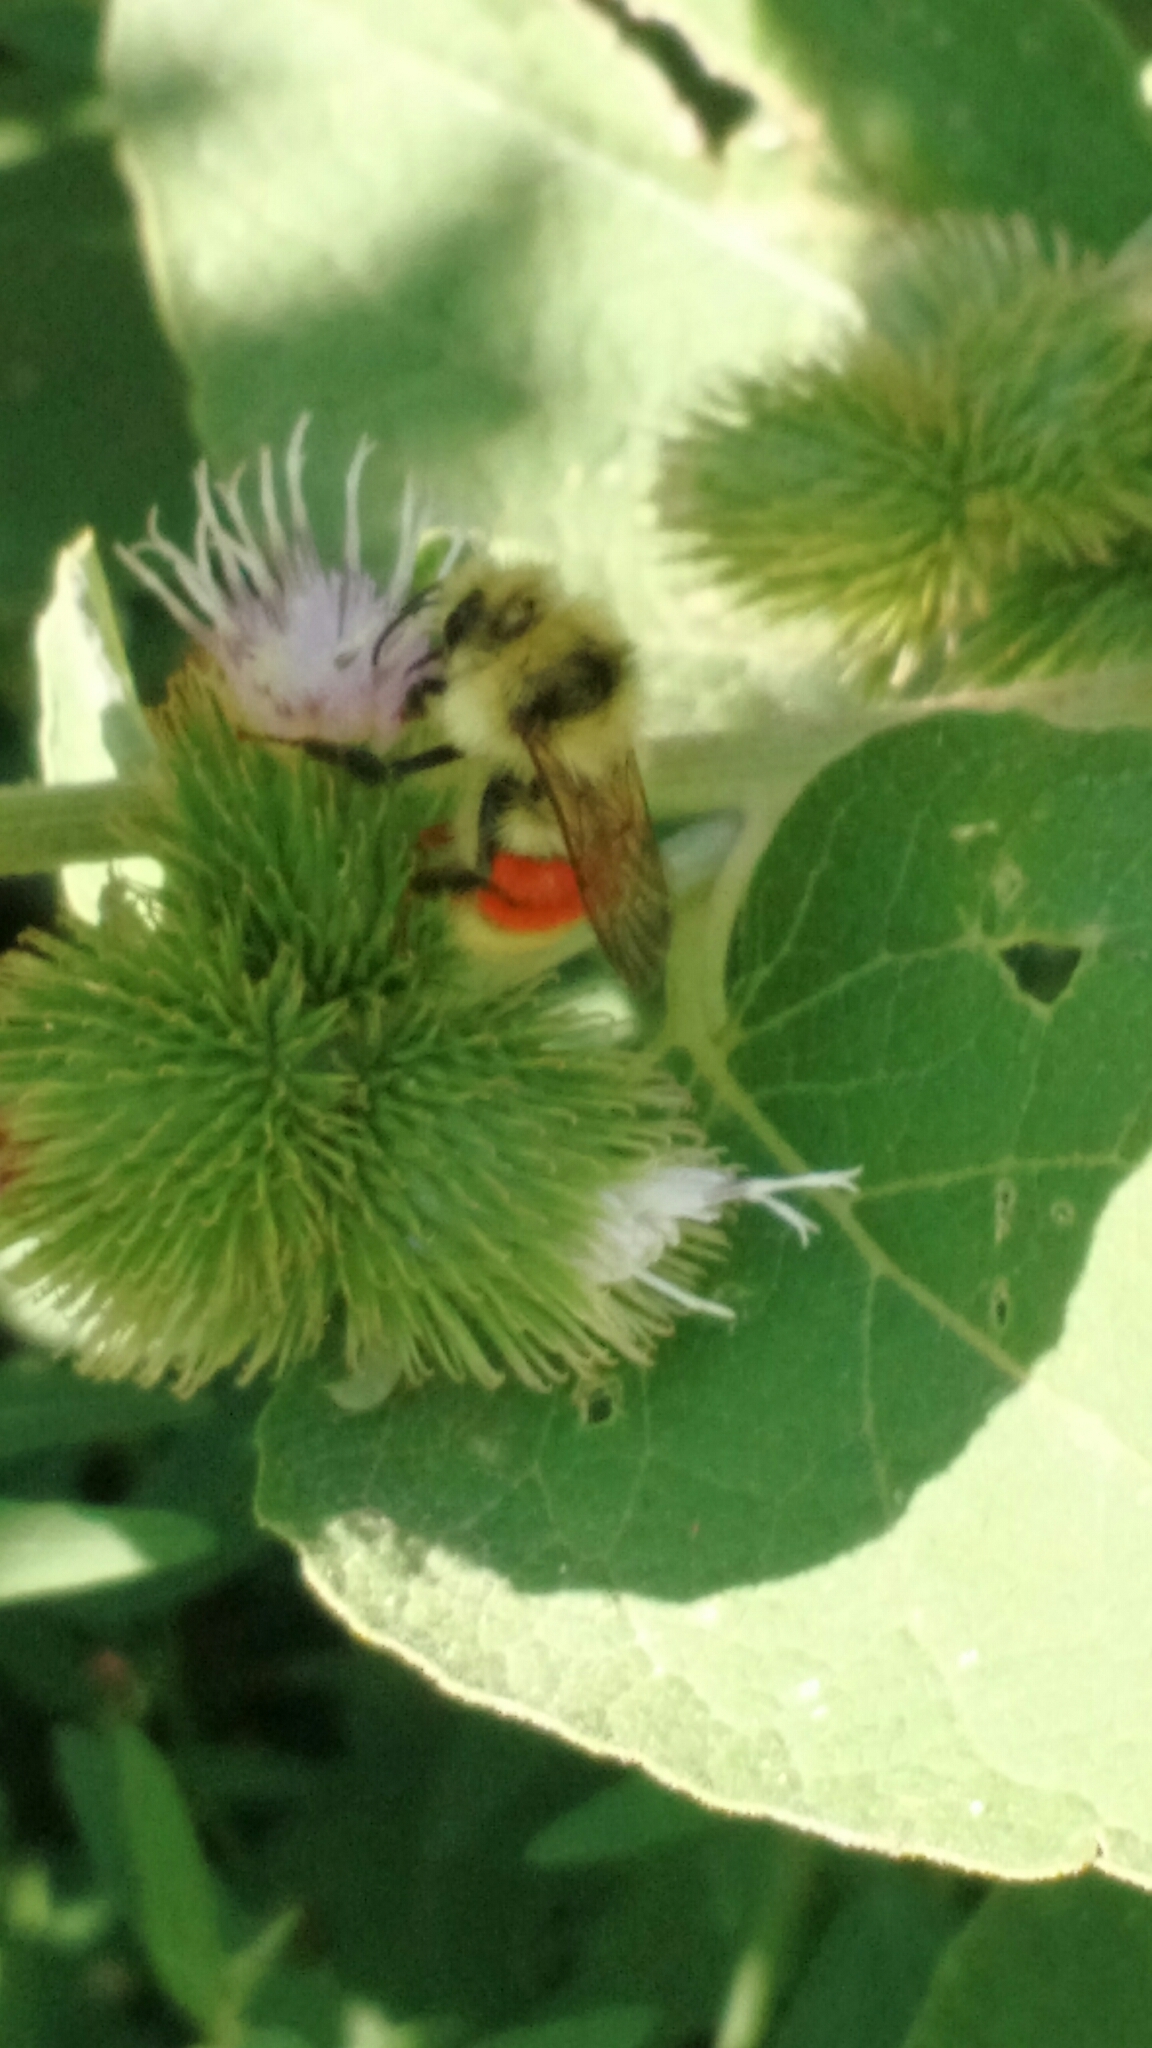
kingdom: Animalia
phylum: Arthropoda
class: Insecta
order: Hymenoptera
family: Apidae
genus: Bombus
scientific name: Bombus huntii
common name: Hunt bumble bee
